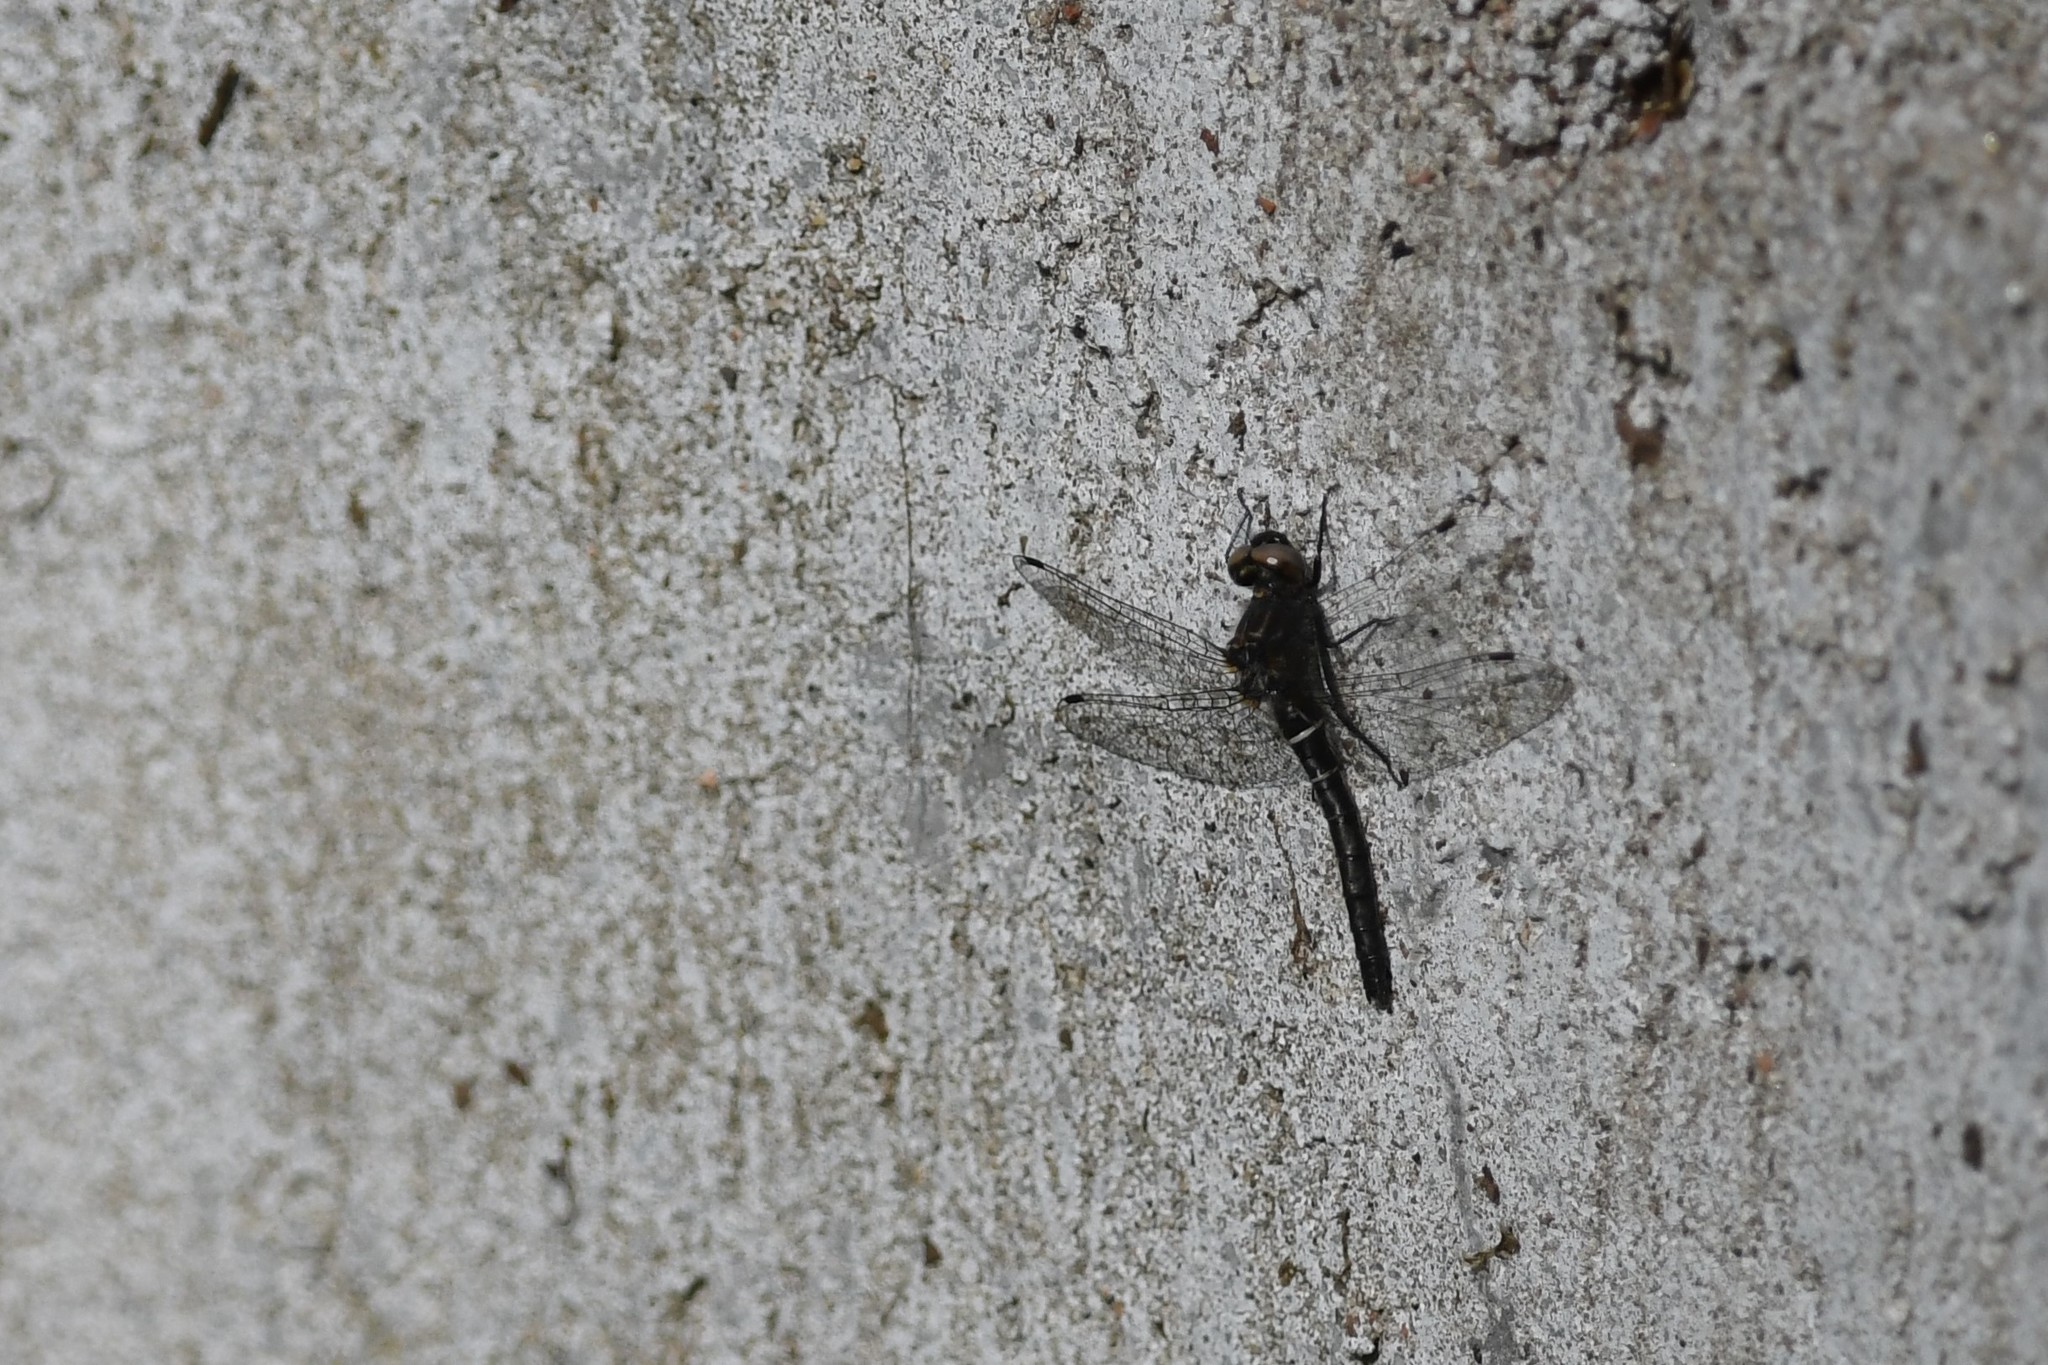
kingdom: Animalia
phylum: Arthropoda
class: Insecta
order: Odonata
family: Corduliidae
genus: Williamsonia
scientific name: Williamsonia fletcheri
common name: Ebony boghaunter
